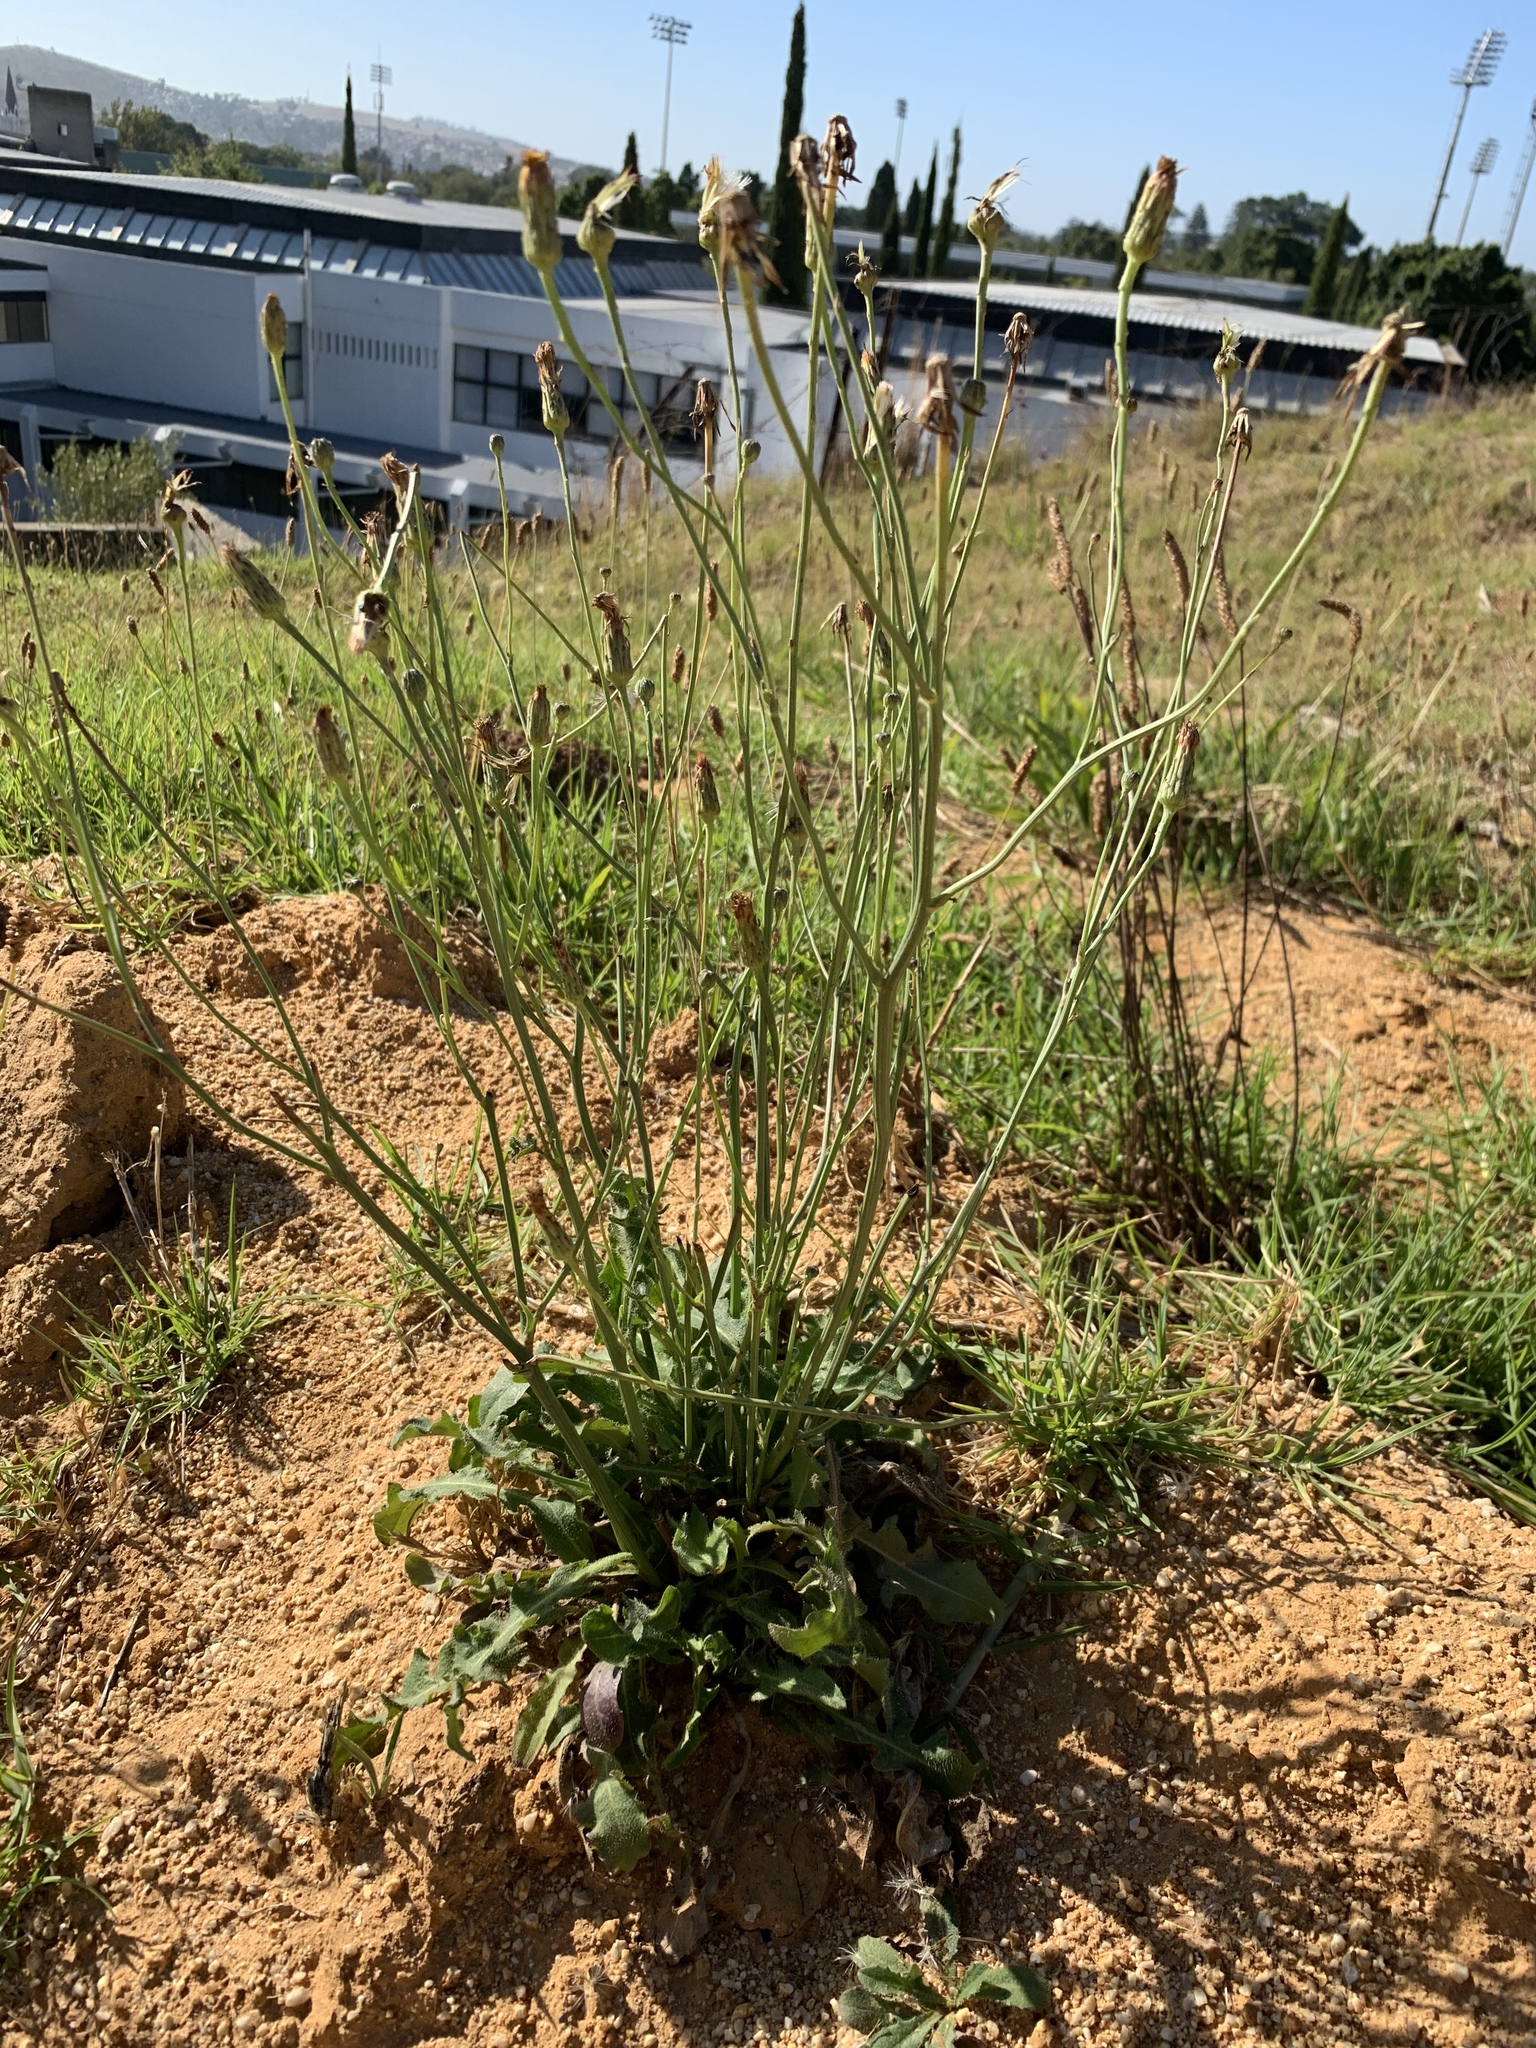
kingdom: Plantae
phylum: Tracheophyta
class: Magnoliopsida
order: Lamiales
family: Plantaginaceae
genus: Plantago
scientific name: Plantago lanceolata
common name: Ribwort plantain
